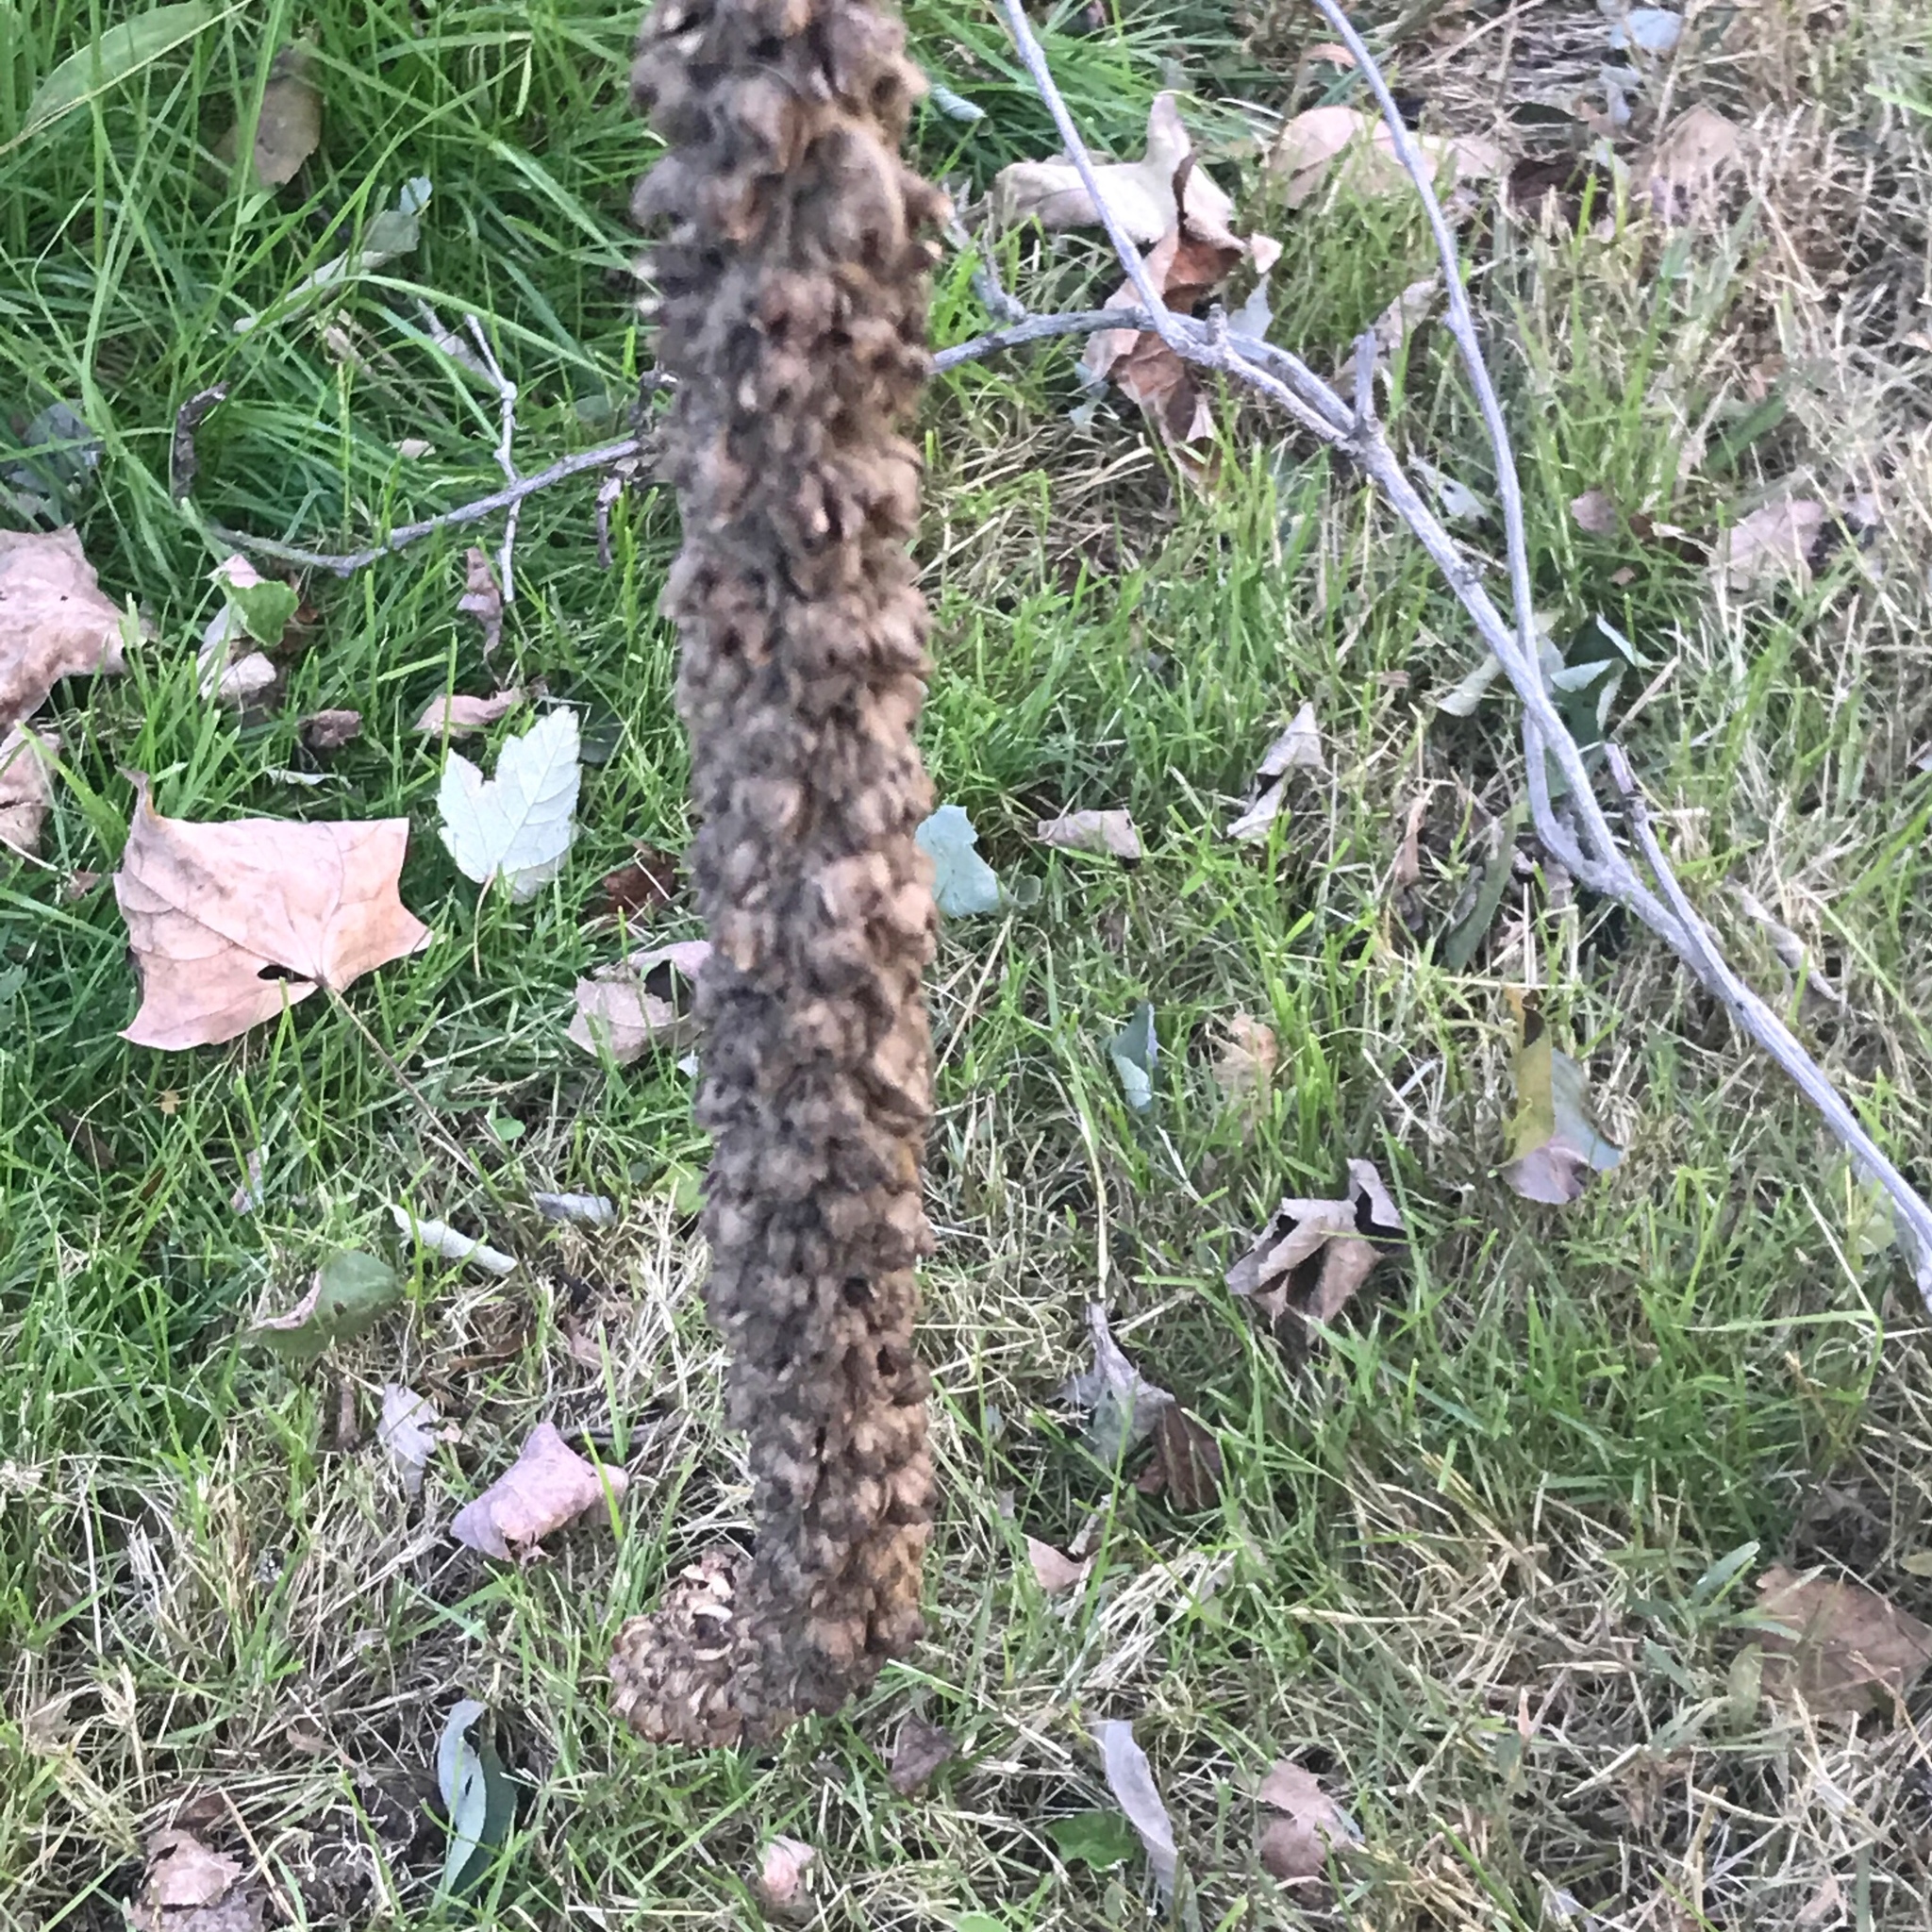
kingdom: Plantae
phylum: Tracheophyta
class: Magnoliopsida
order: Lamiales
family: Scrophulariaceae
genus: Verbascum
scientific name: Verbascum thapsus
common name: Common mullein
